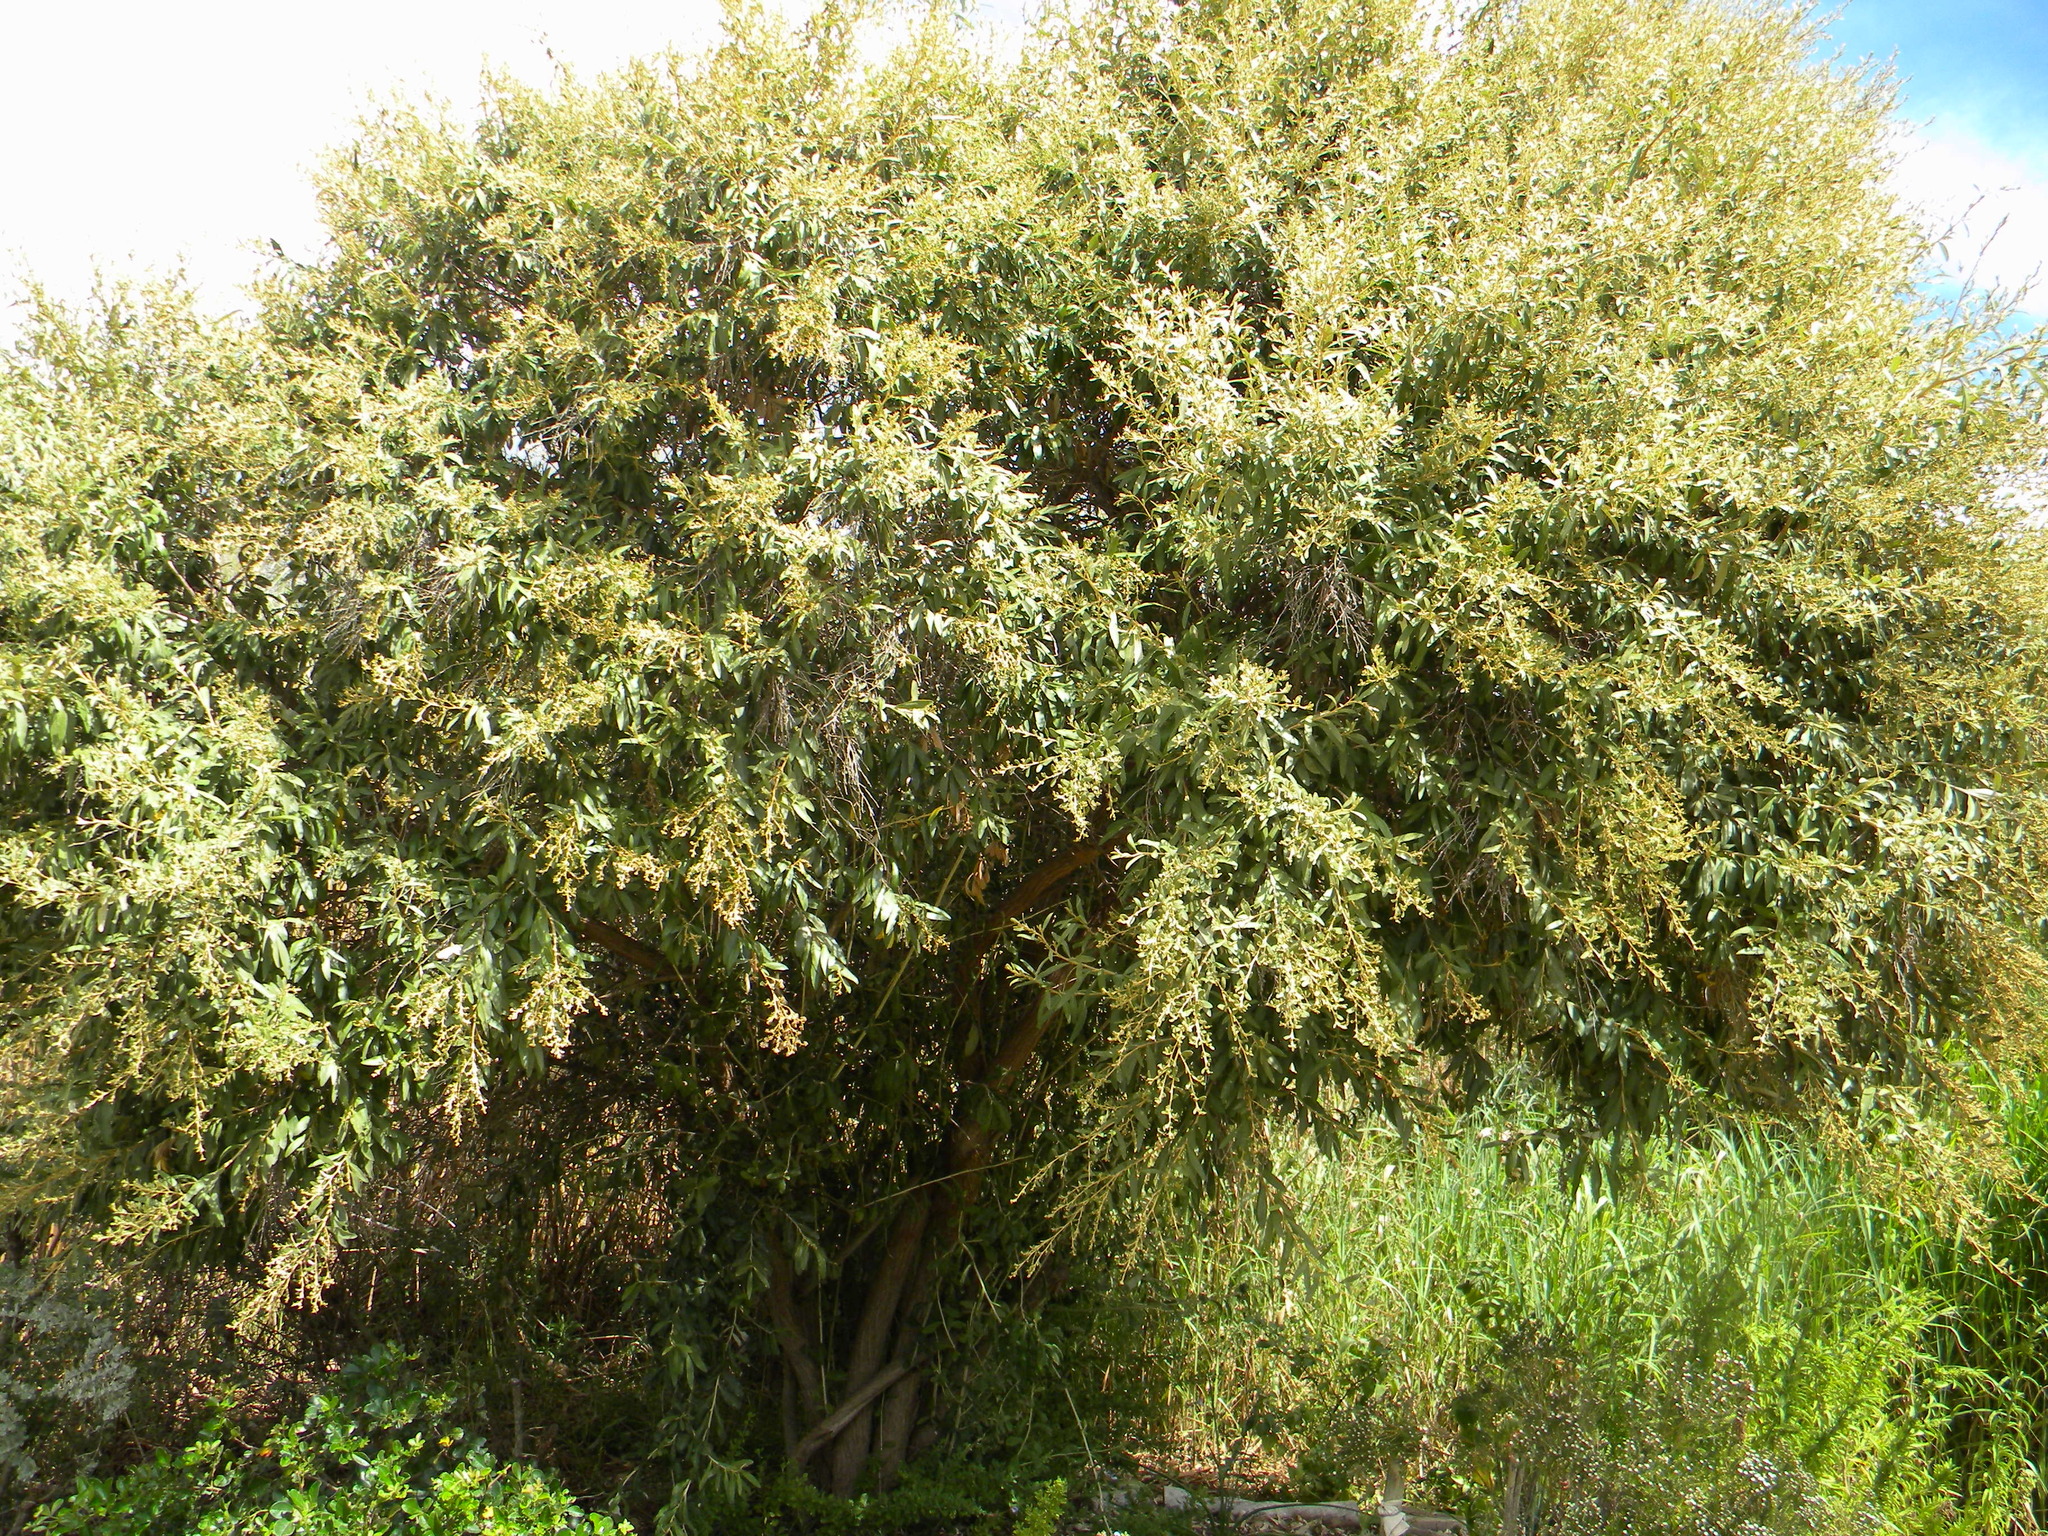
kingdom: Plantae
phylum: Tracheophyta
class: Magnoliopsida
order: Asterales
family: Asteraceae
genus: Tarchonanthus
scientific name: Tarchonanthus littoralis
